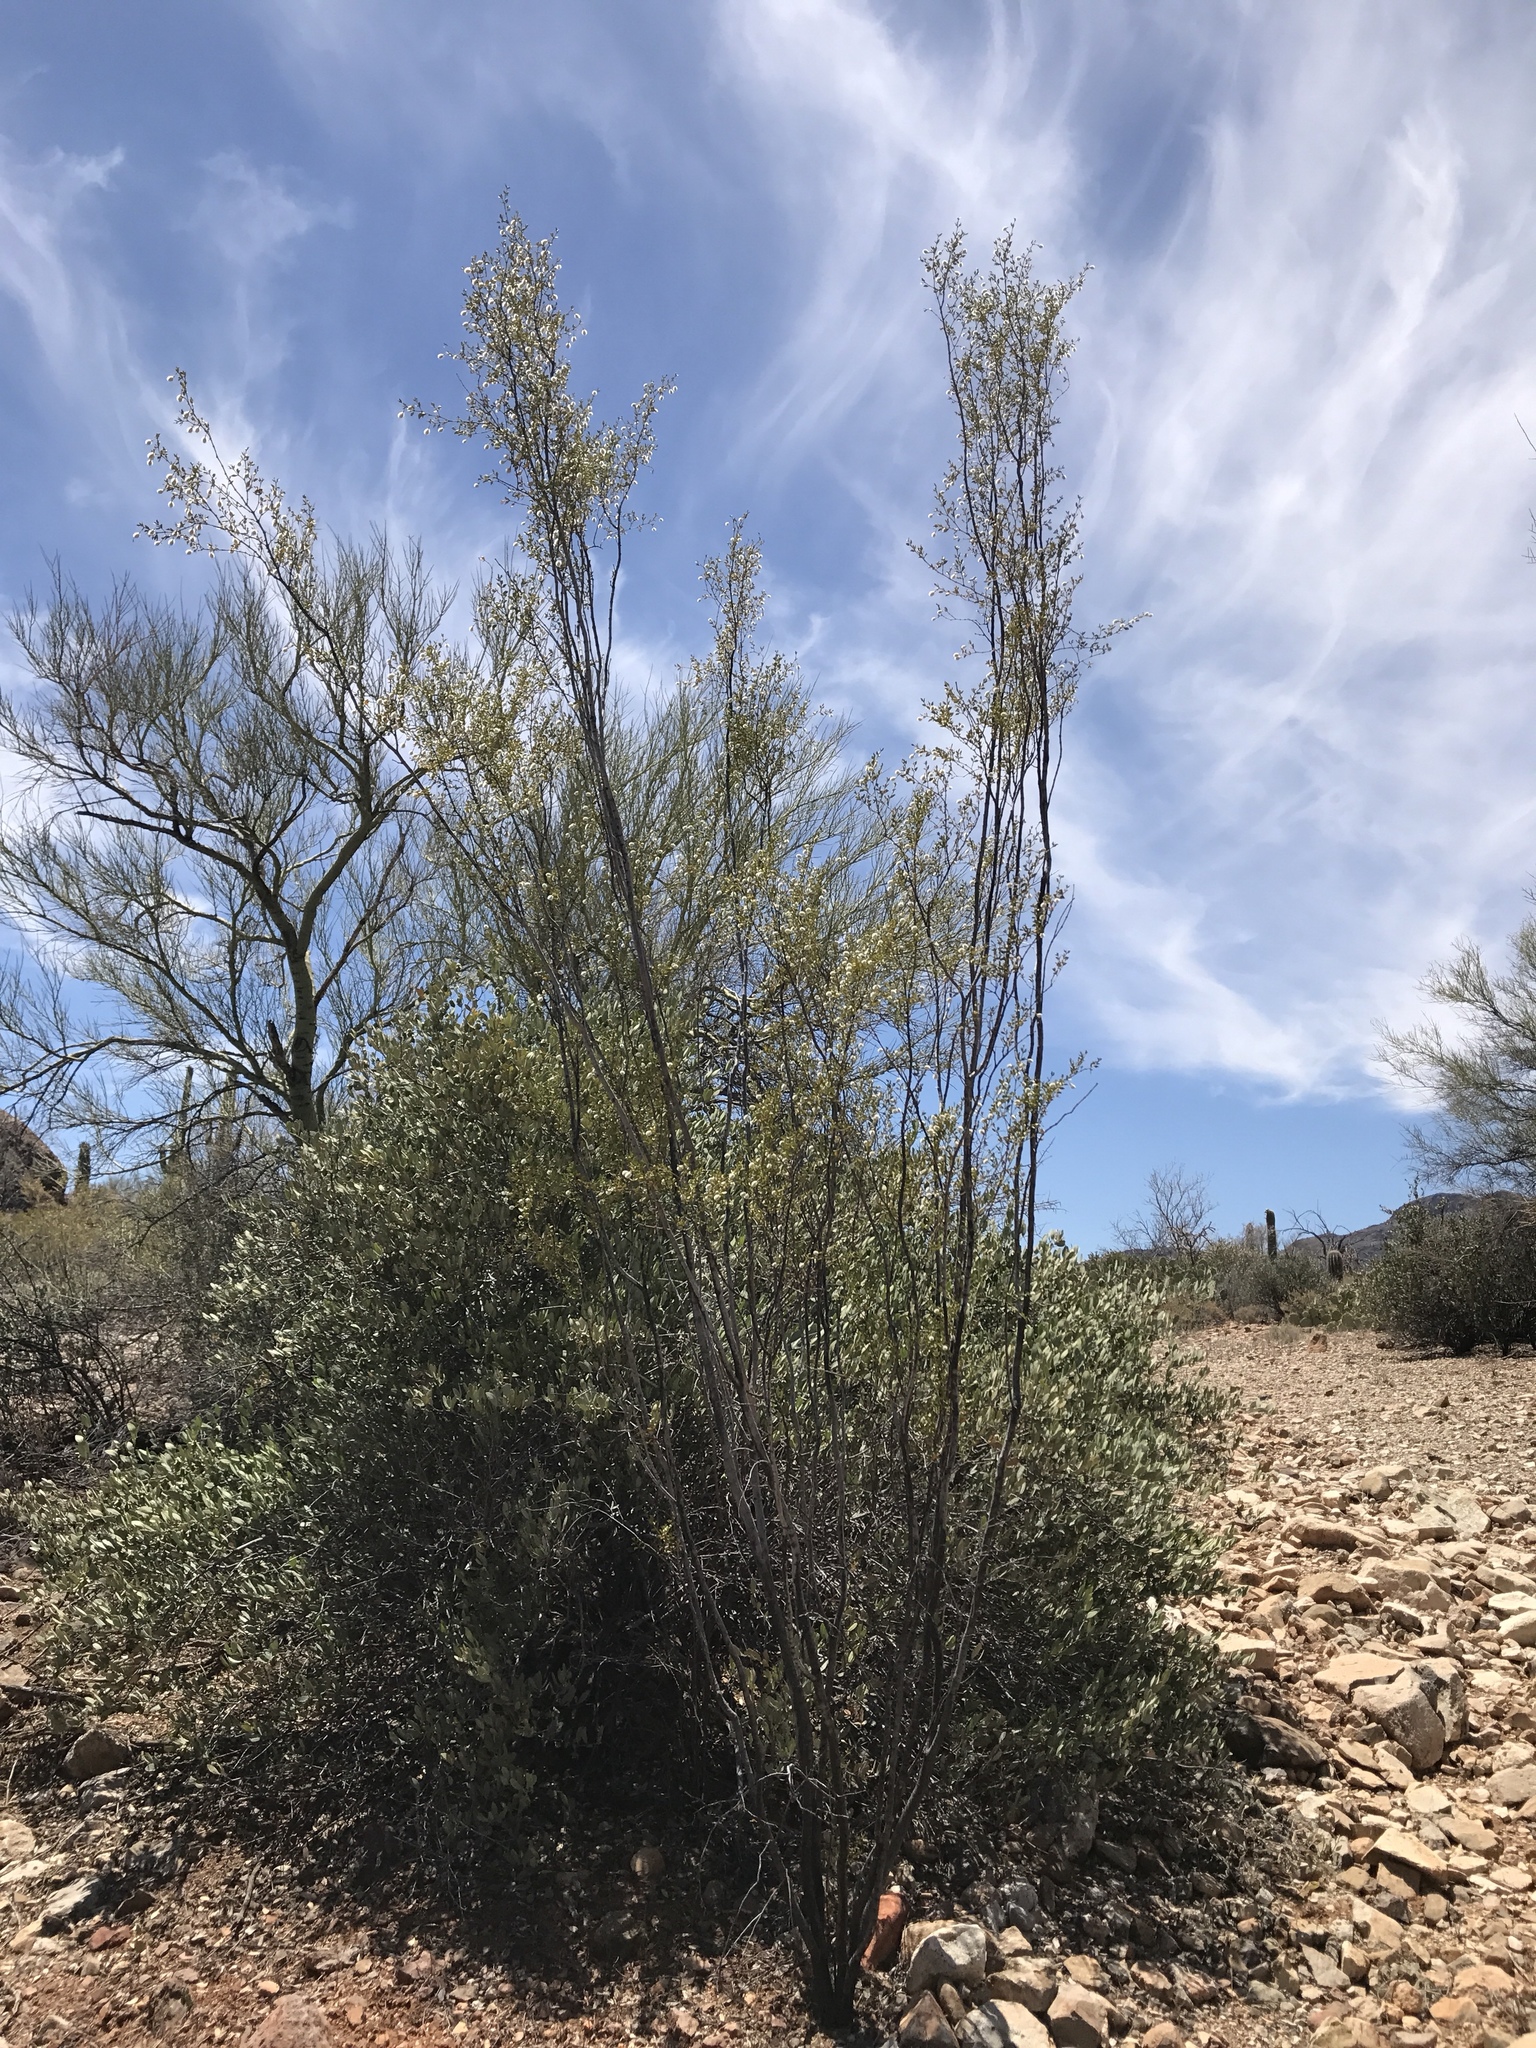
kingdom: Plantae
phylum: Tracheophyta
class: Magnoliopsida
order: Caryophyllales
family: Simmondsiaceae
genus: Simmondsia
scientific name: Simmondsia chinensis
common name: Jojoba
